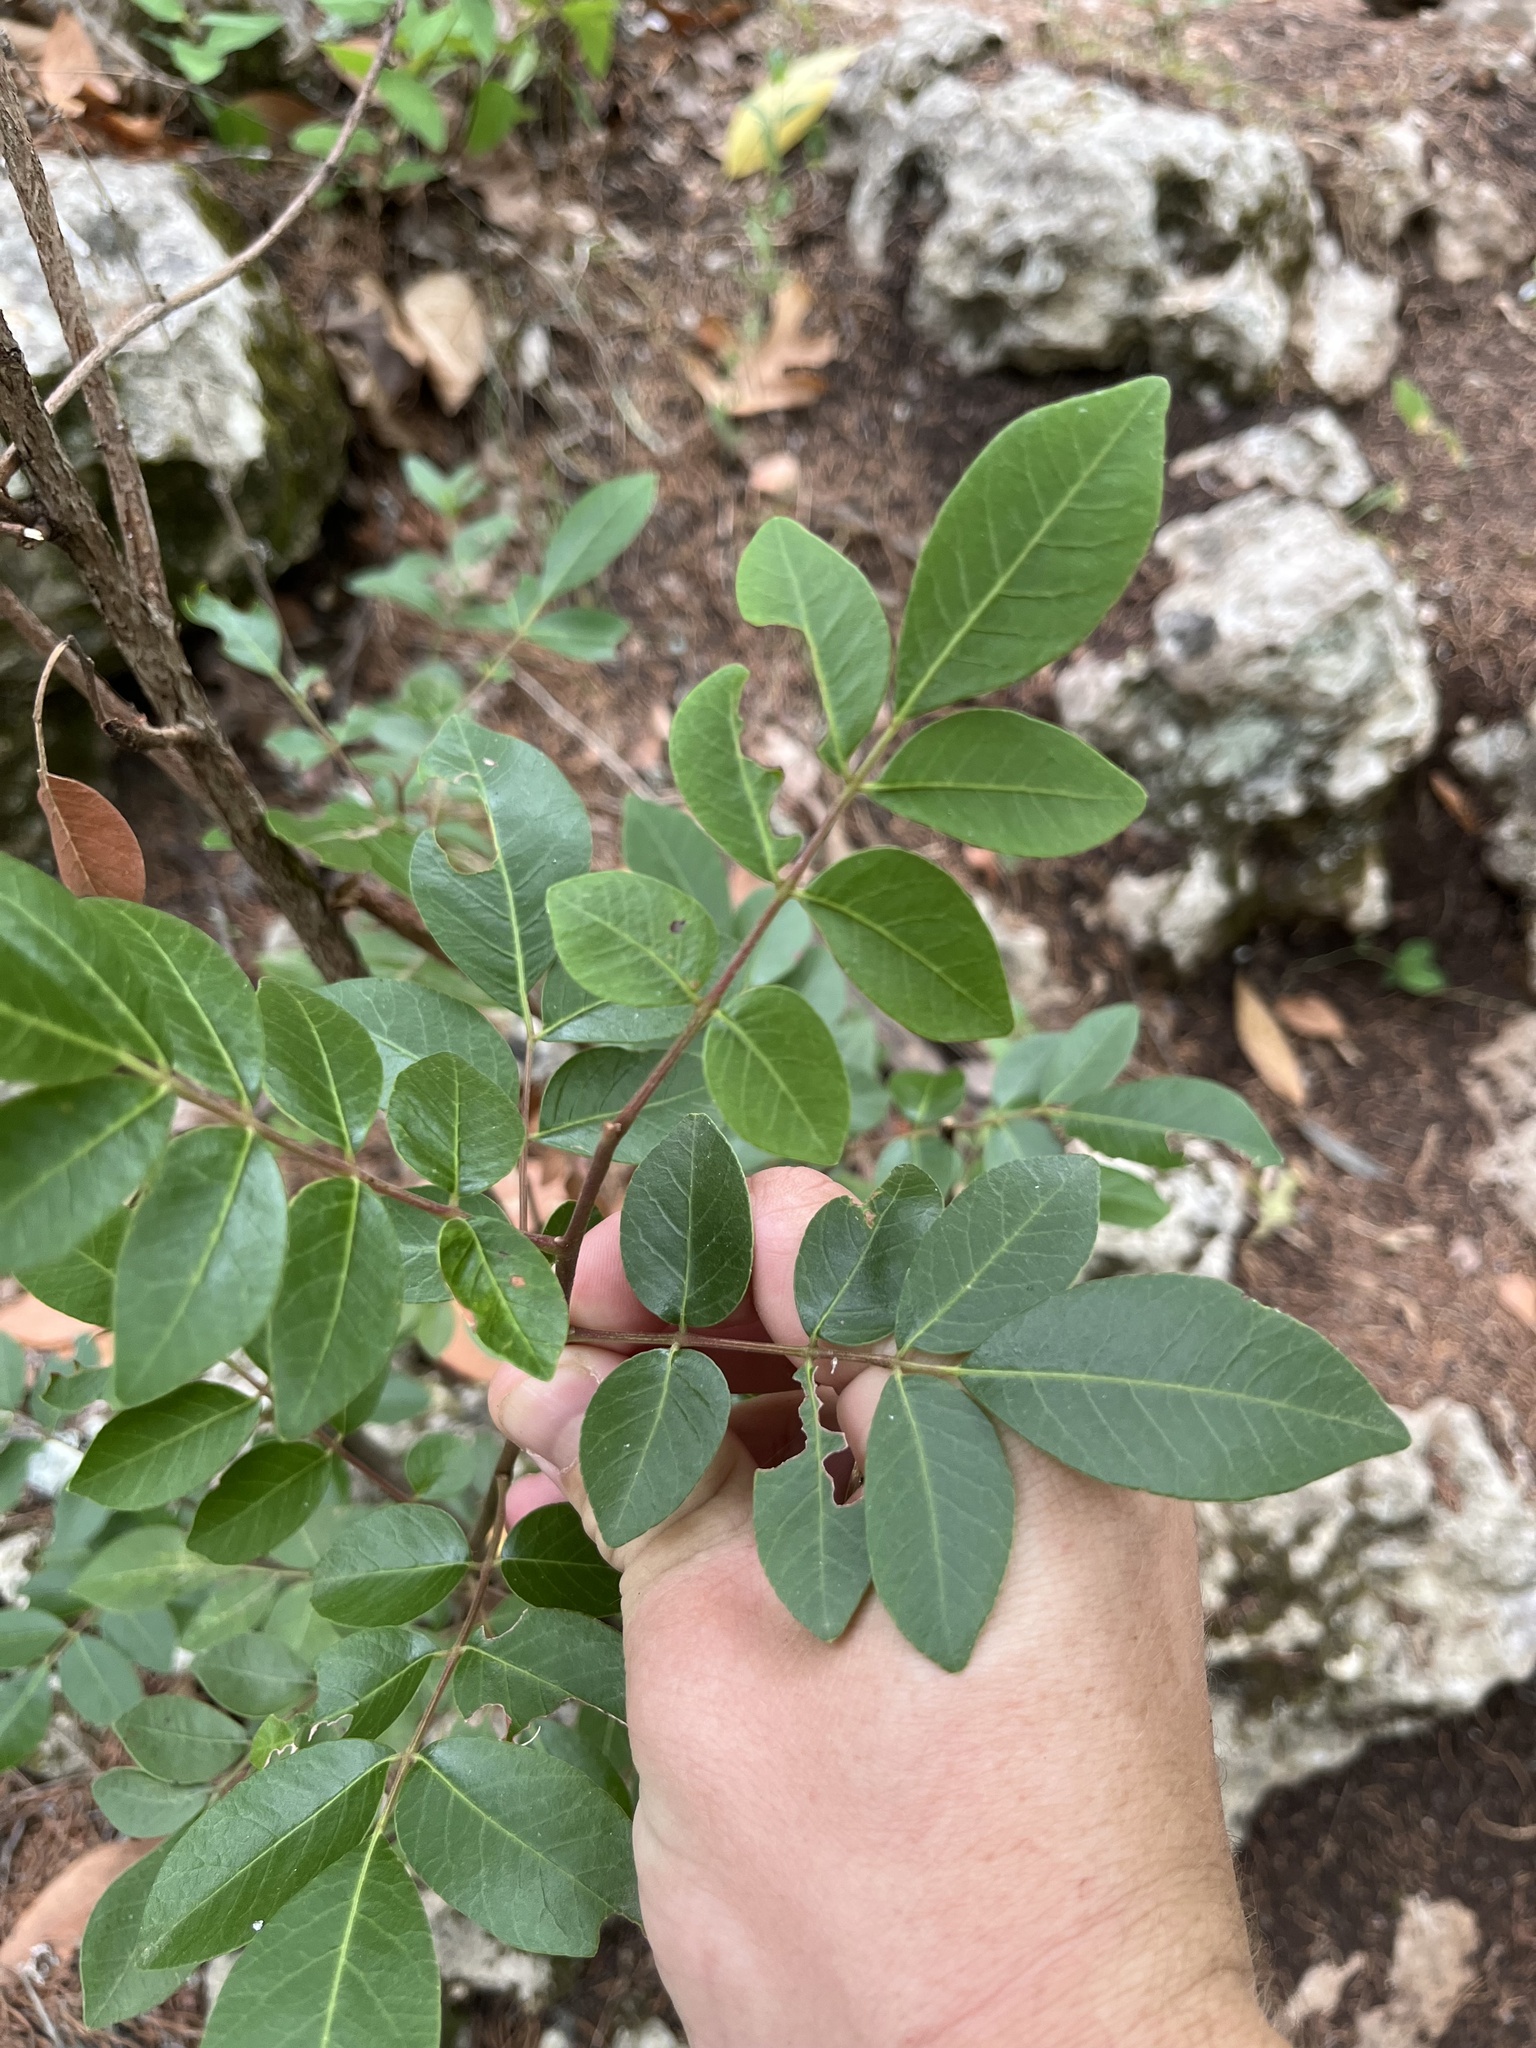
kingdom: Plantae
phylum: Tracheophyta
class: Magnoliopsida
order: Sapindales
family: Anacardiaceae
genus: Rhus
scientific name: Rhus virens
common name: Evergreen sumac
